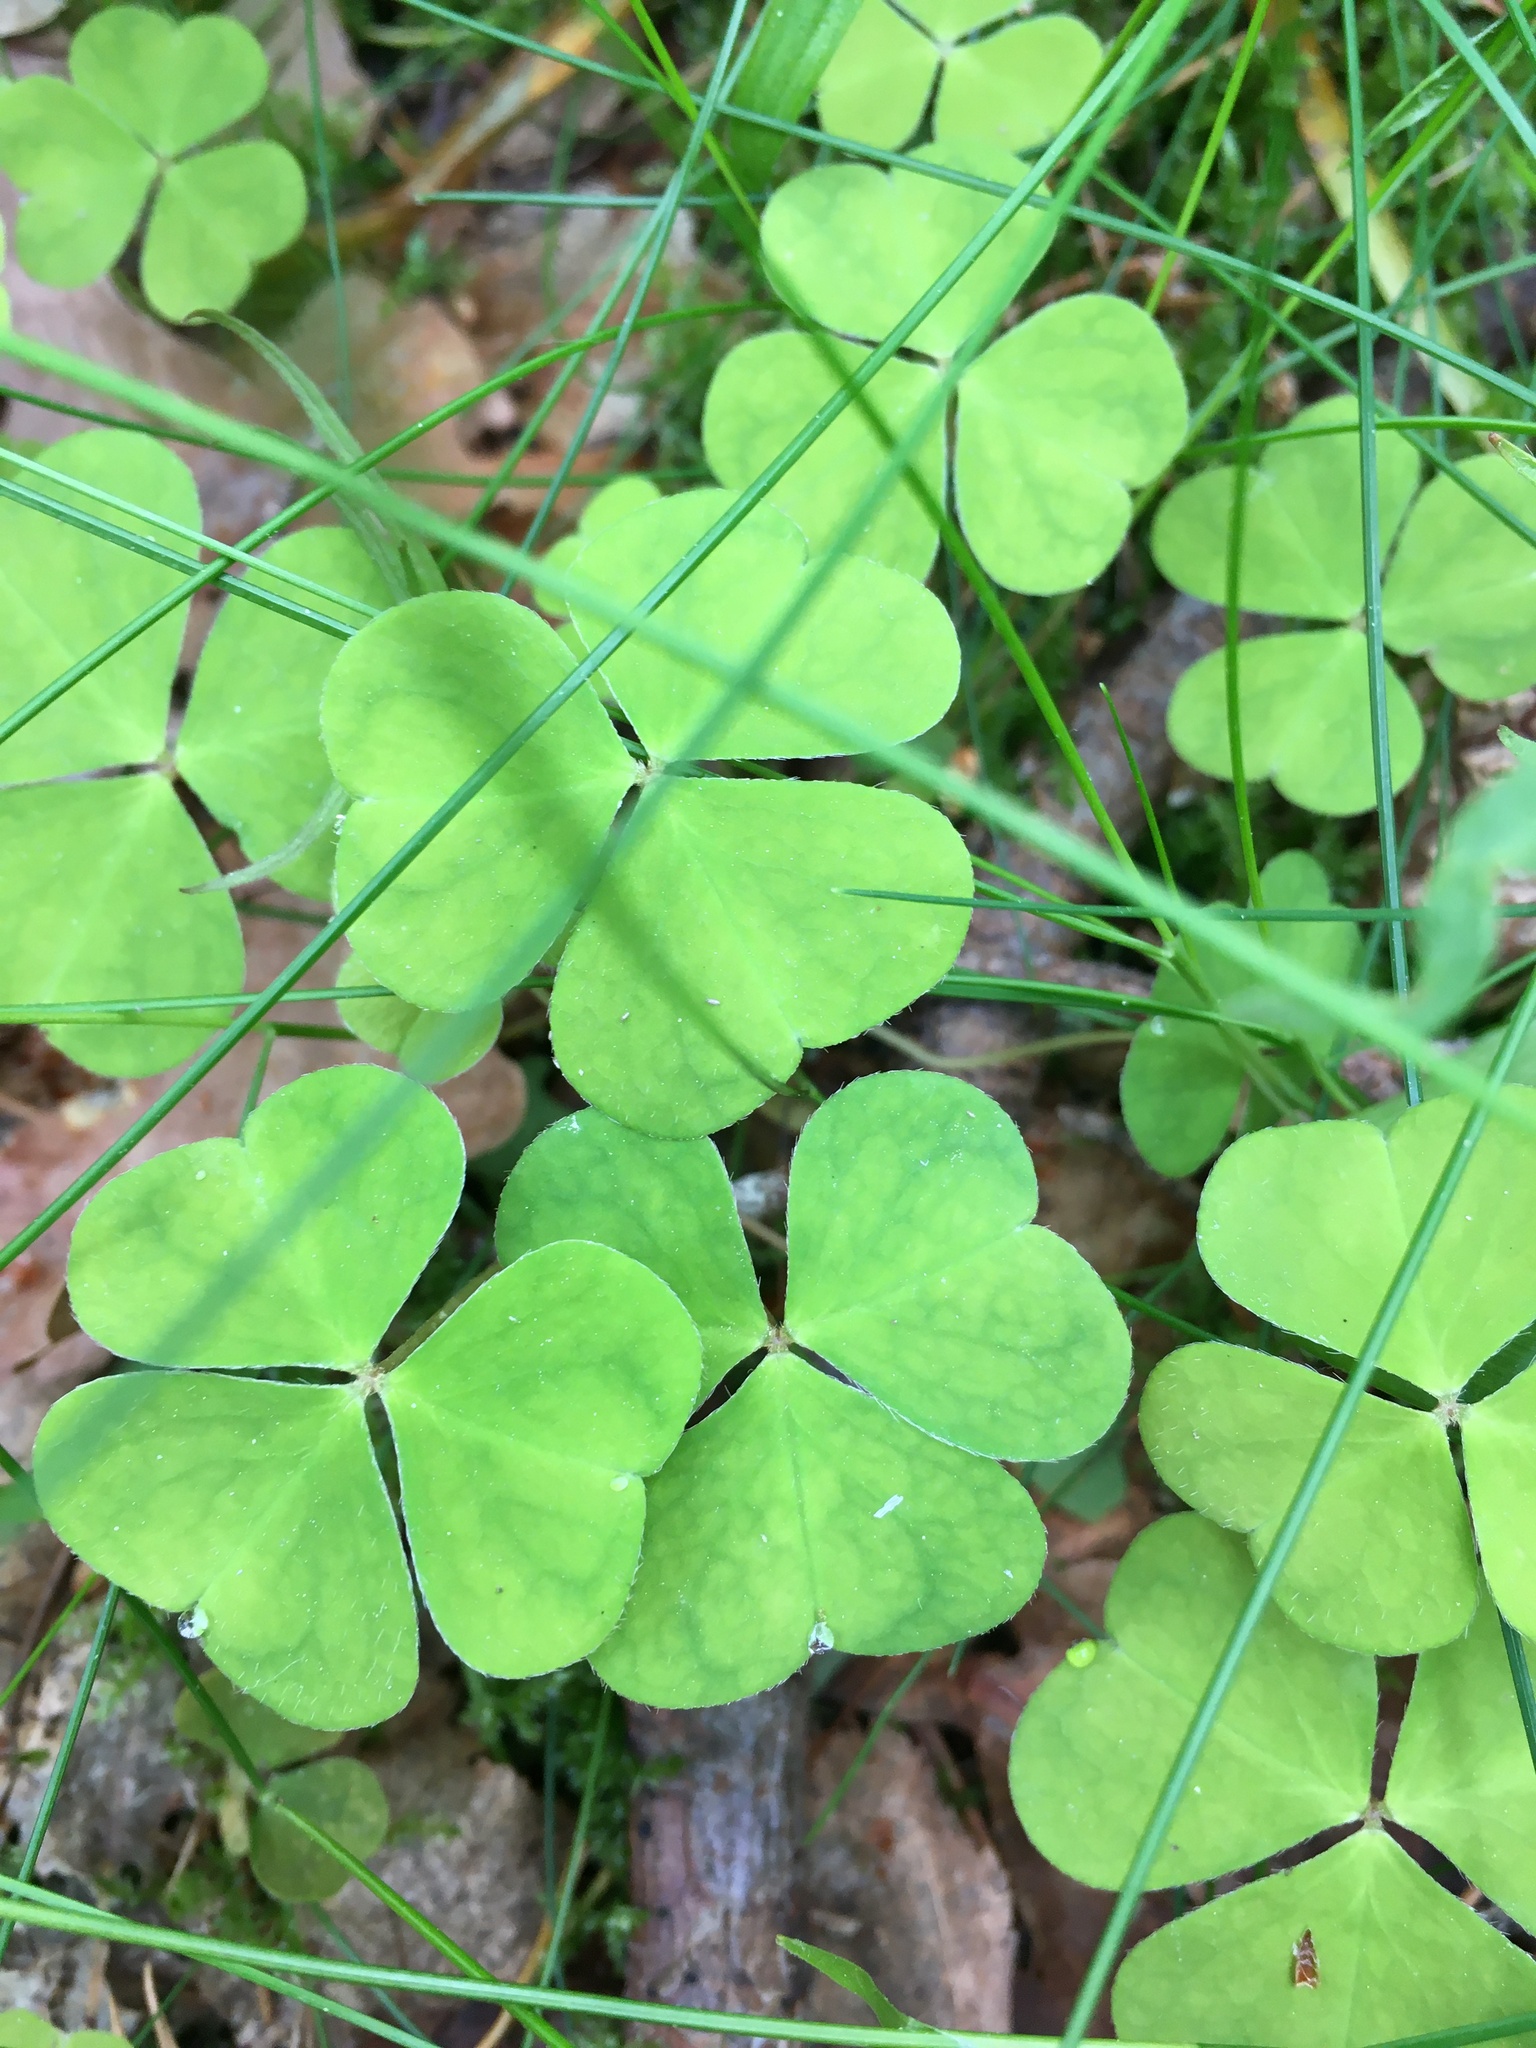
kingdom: Plantae
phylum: Tracheophyta
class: Magnoliopsida
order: Oxalidales
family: Oxalidaceae
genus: Oxalis
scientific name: Oxalis acetosella
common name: Wood-sorrel
